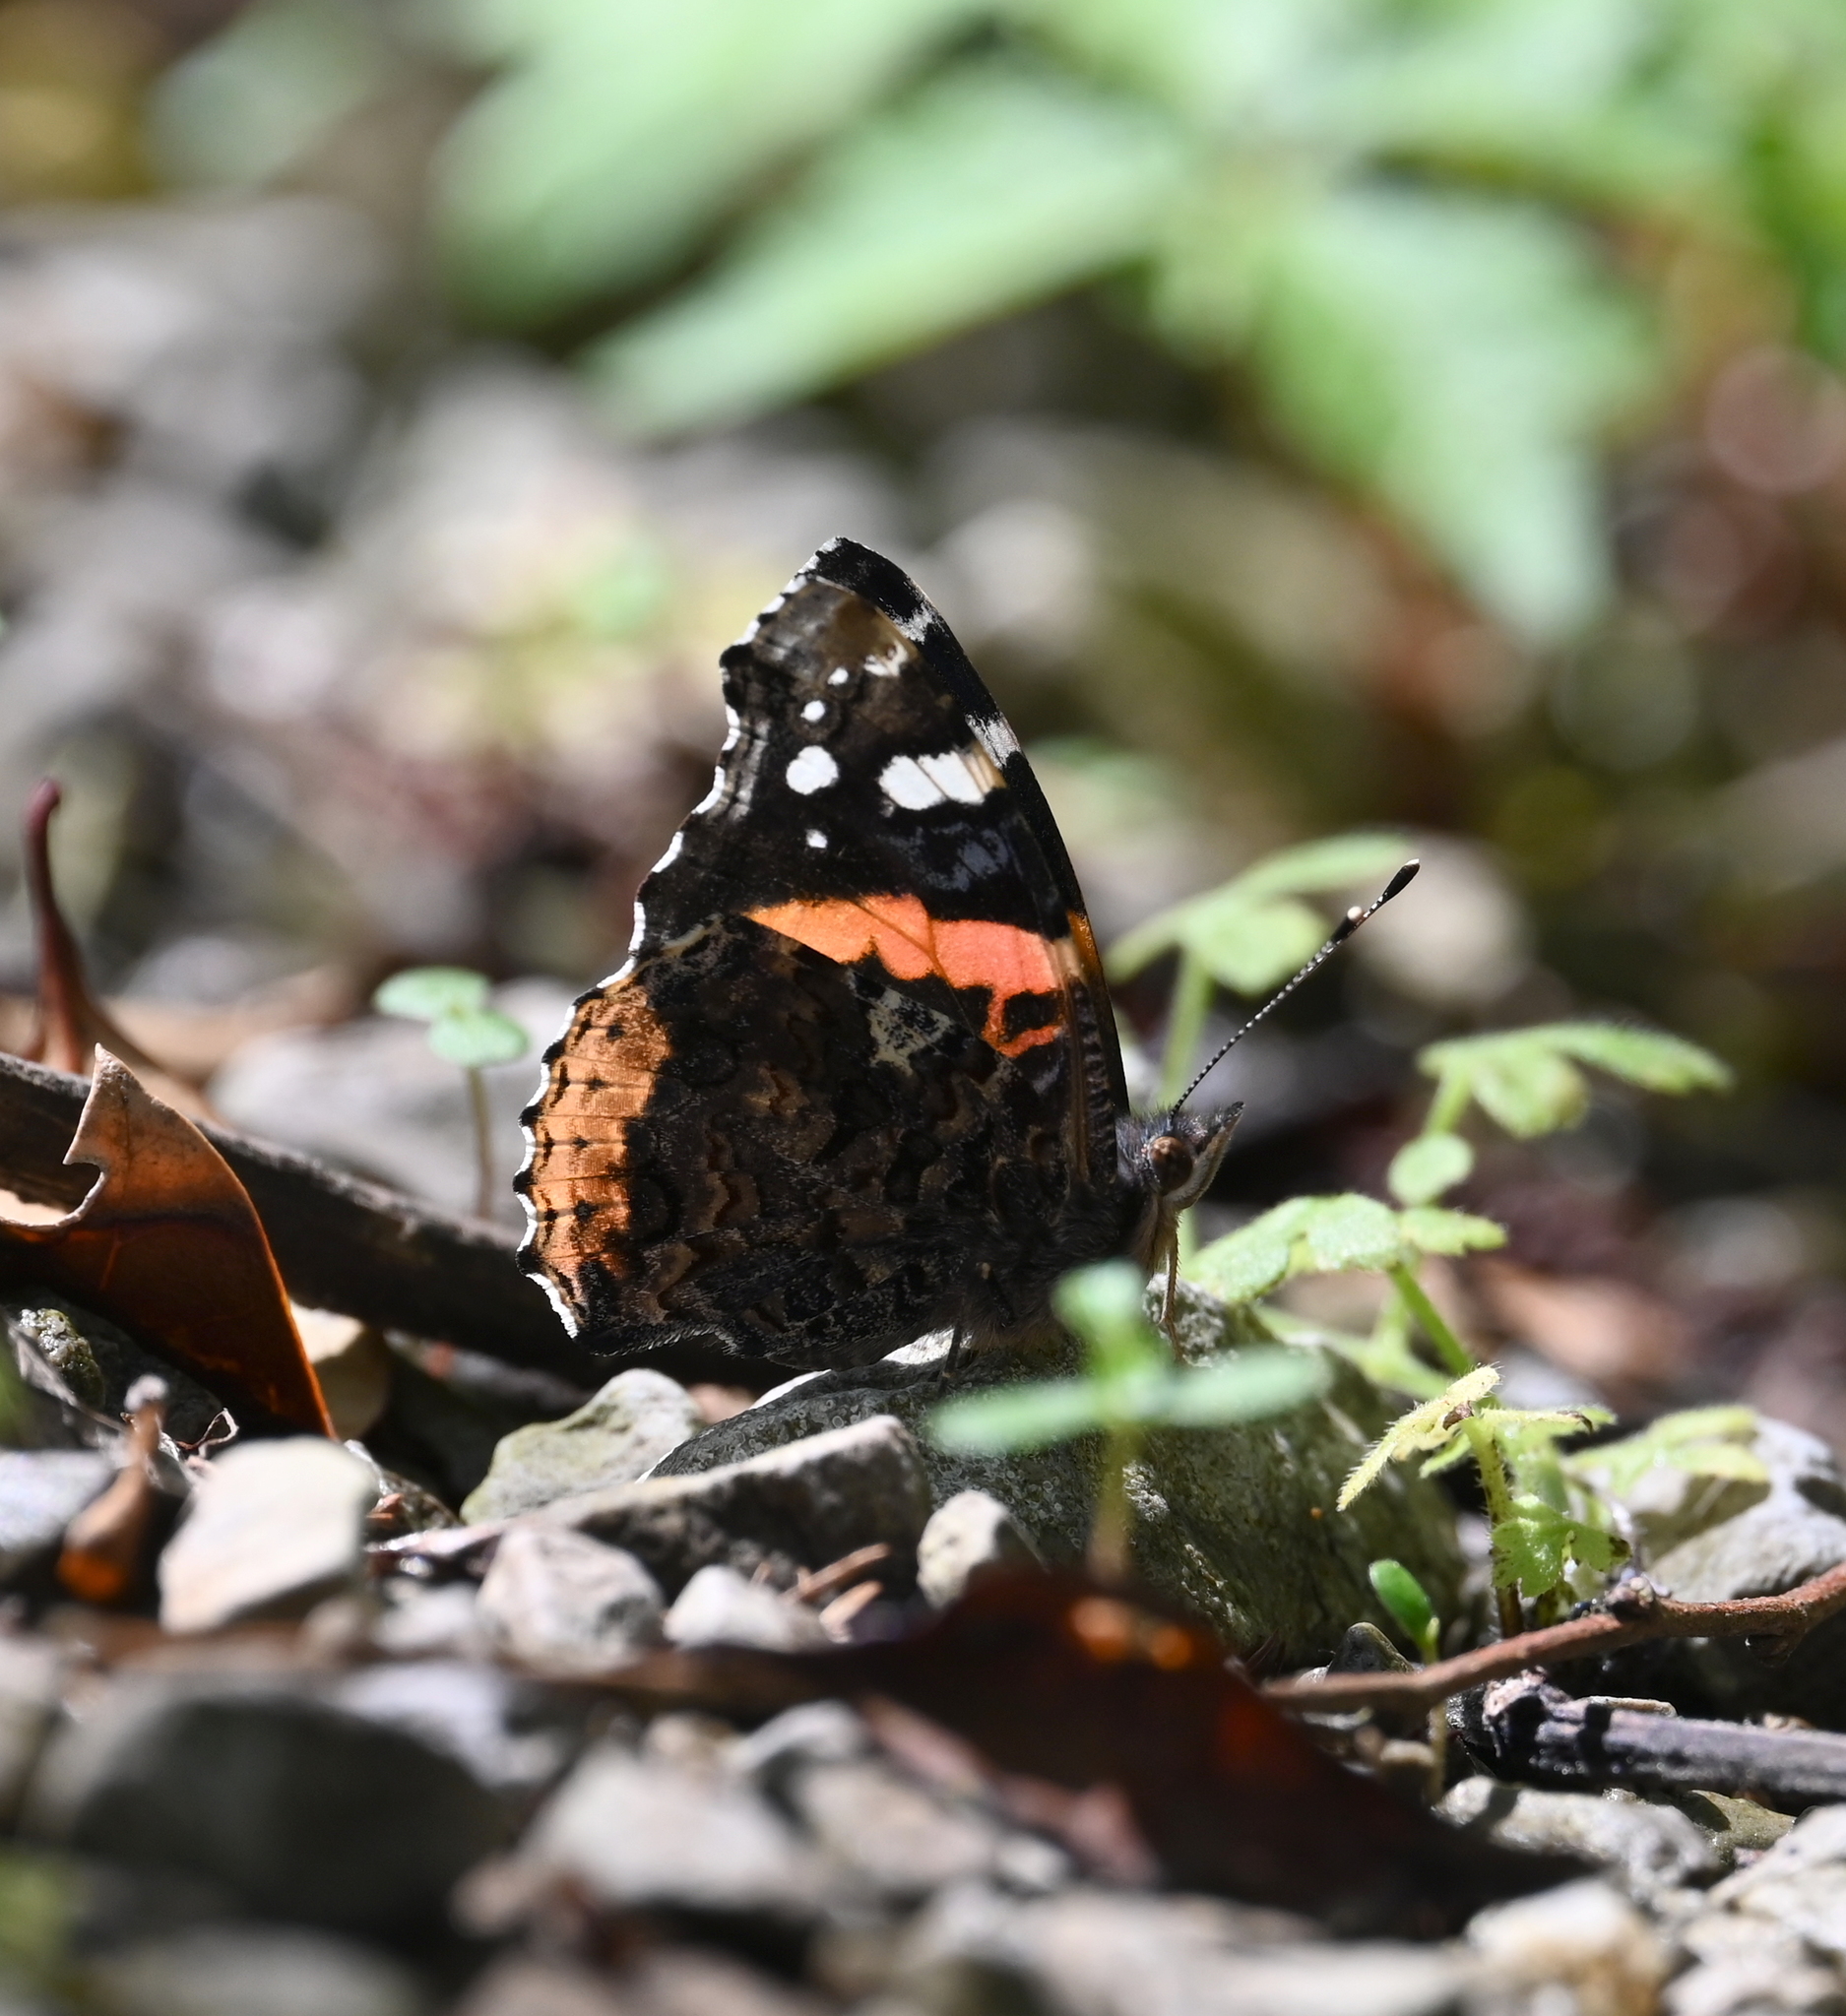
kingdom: Animalia
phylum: Arthropoda
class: Insecta
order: Lepidoptera
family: Nymphalidae
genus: Vanessa
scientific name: Vanessa atalanta
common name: Red admiral
